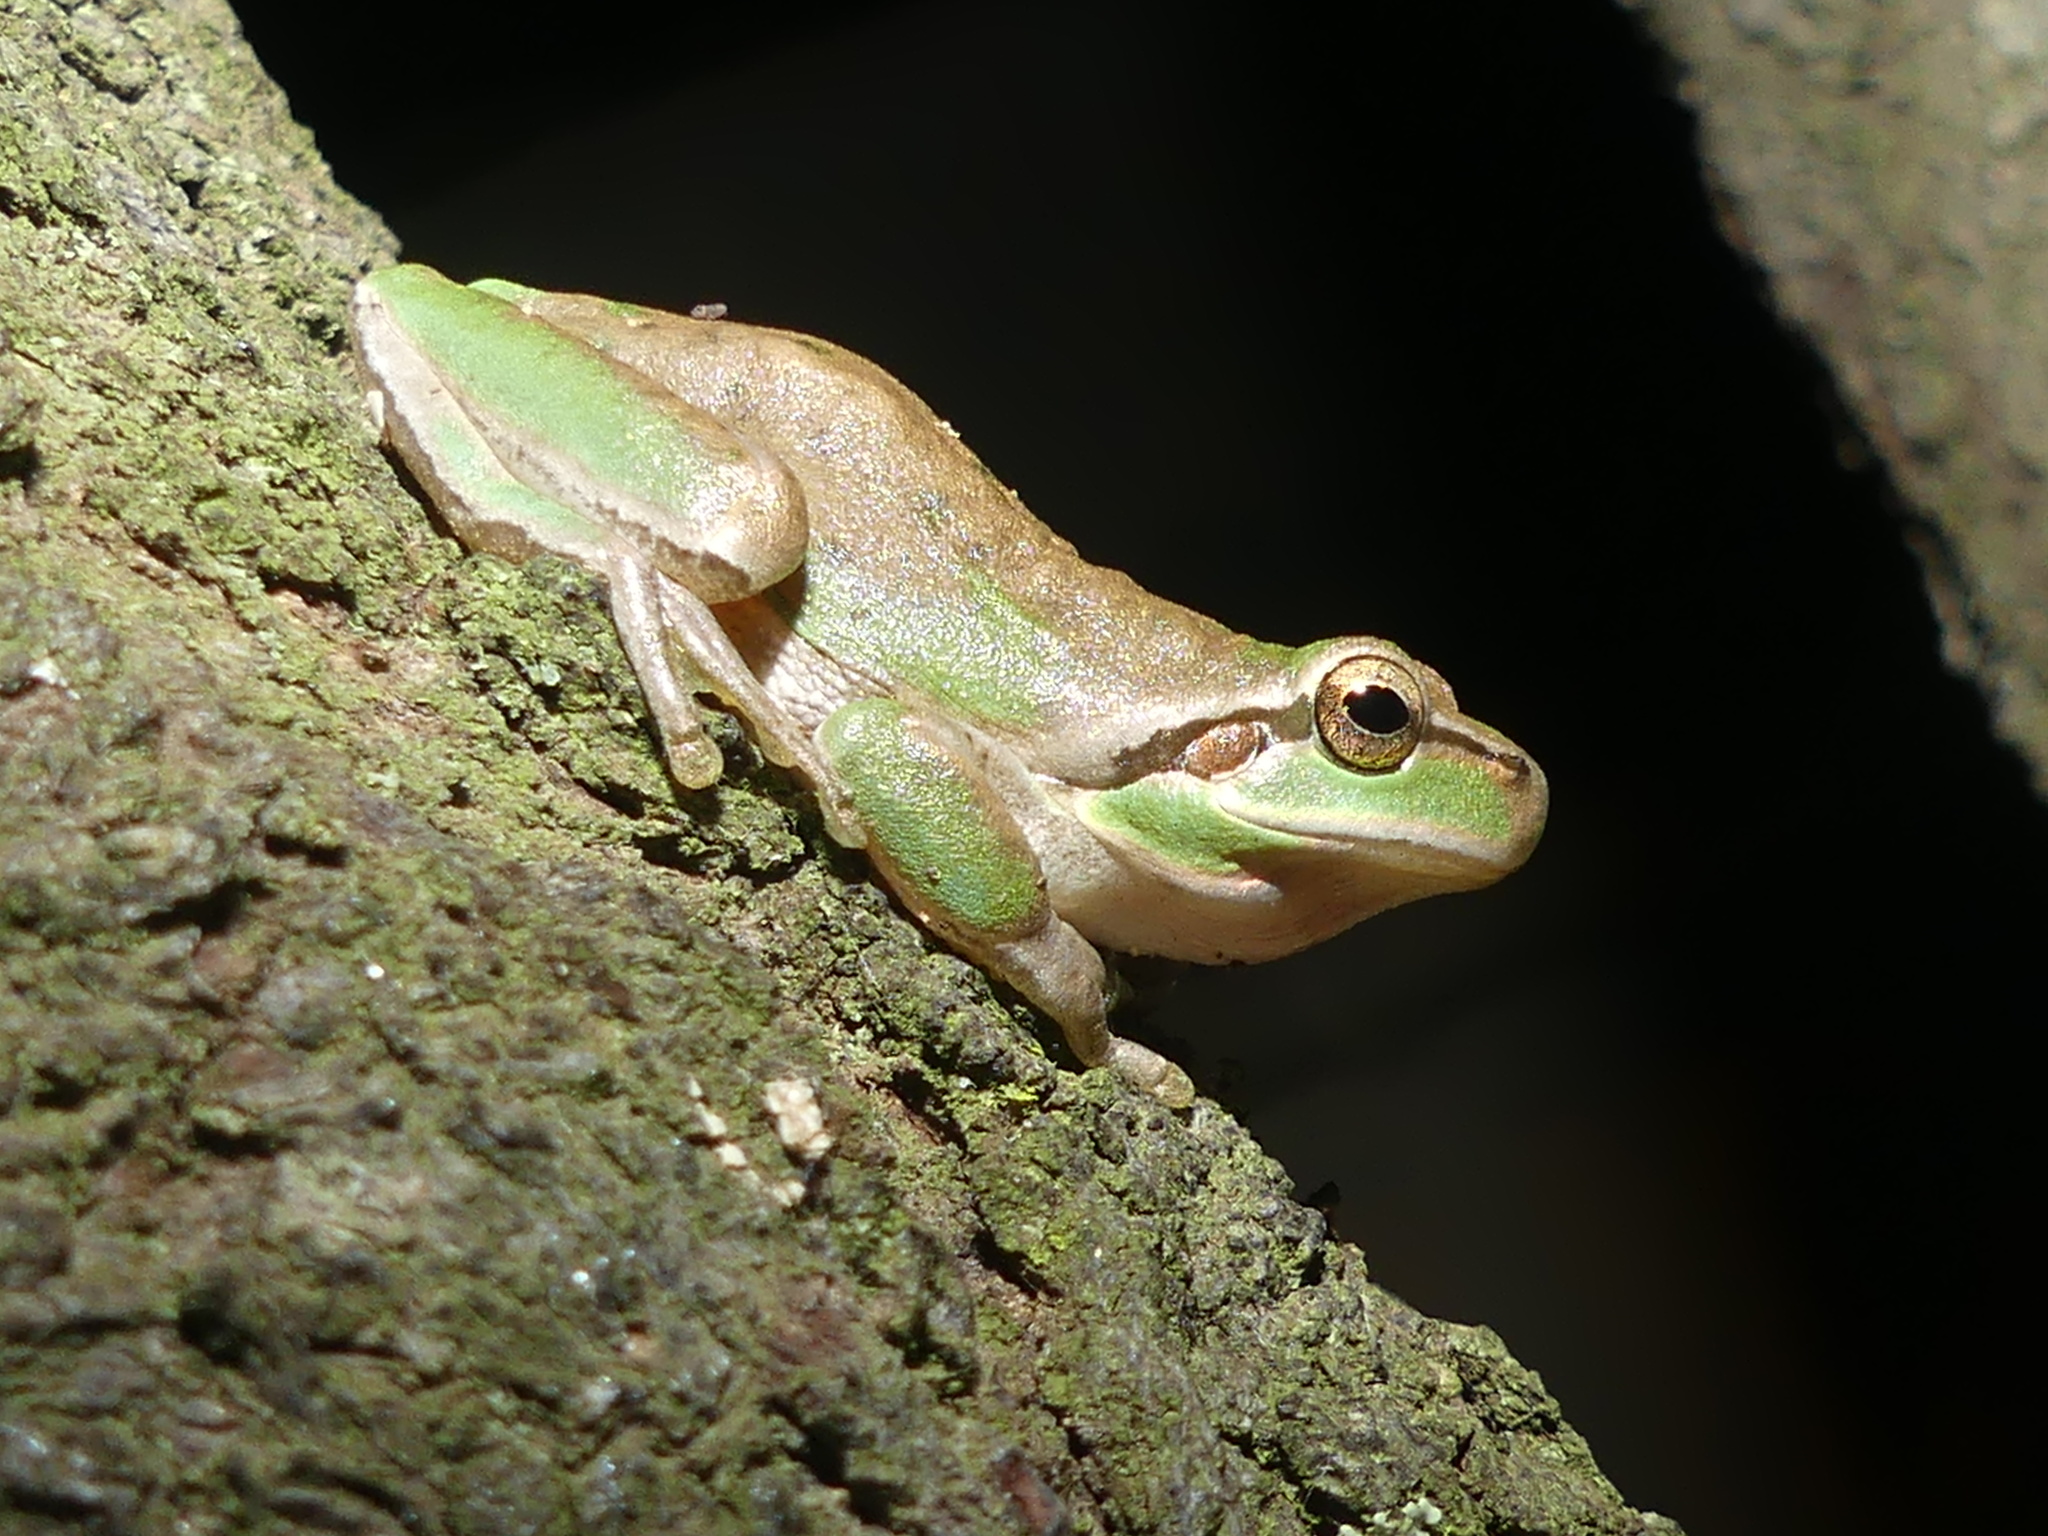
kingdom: Animalia
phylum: Chordata
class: Amphibia
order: Anura
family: Hylidae
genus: Hyla
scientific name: Hyla meridionalis
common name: Stripeless tree frog
